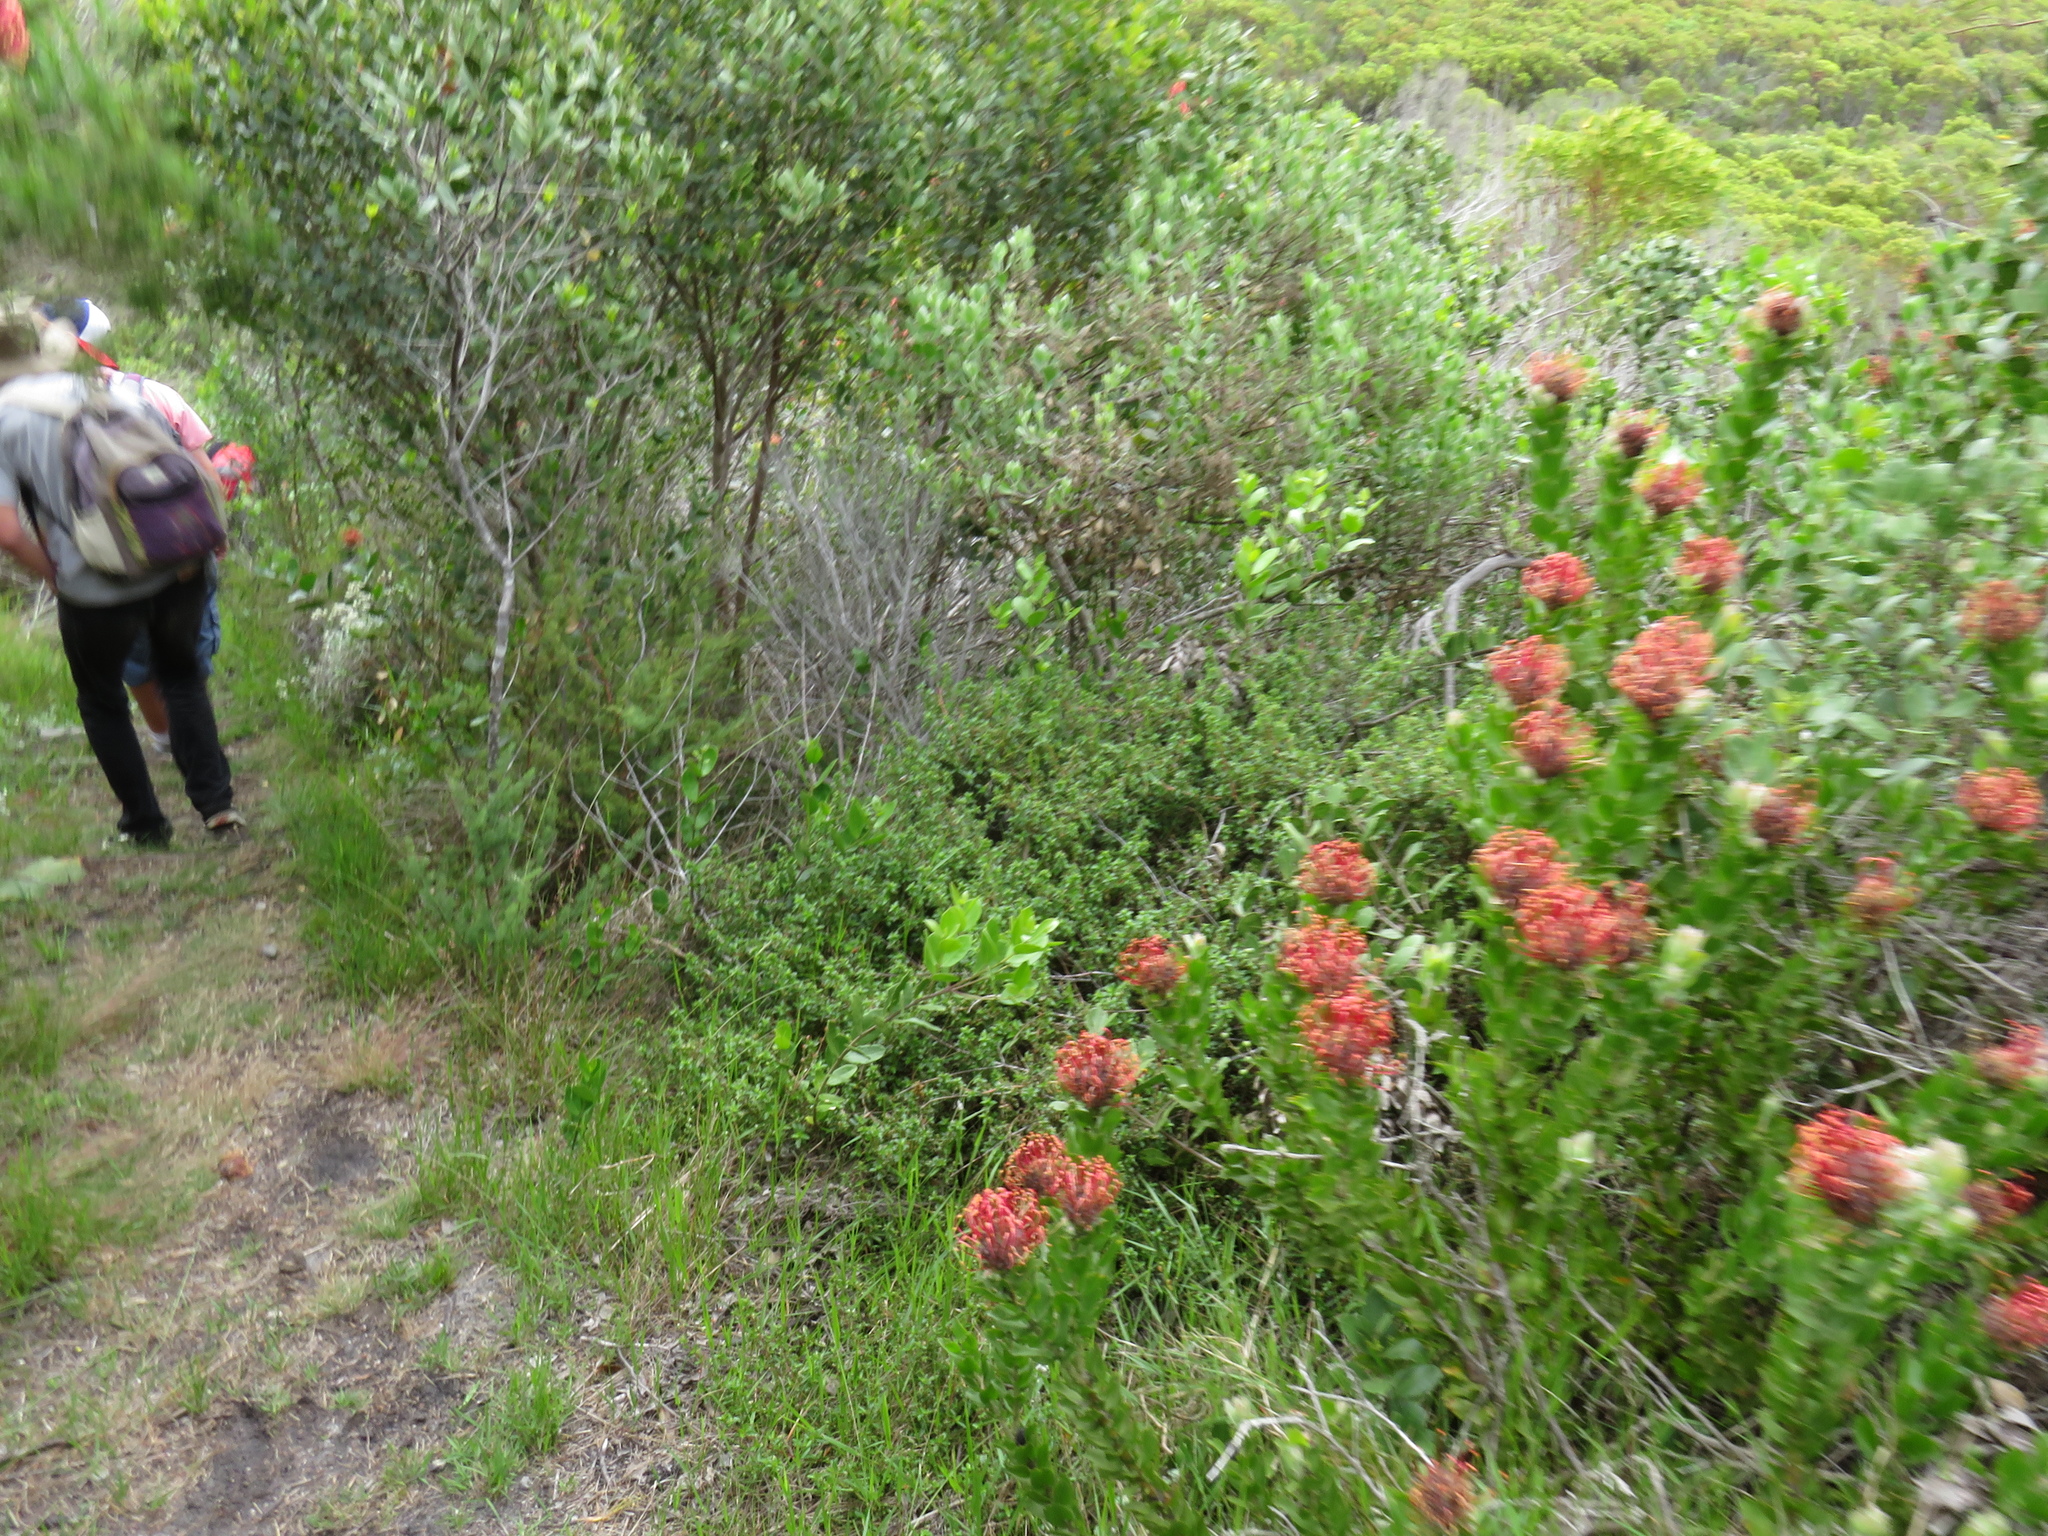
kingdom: Plantae
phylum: Tracheophyta
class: Magnoliopsida
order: Proteales
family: Proteaceae
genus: Leucospermum
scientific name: Leucospermum patersonii
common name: False tree pincushion
